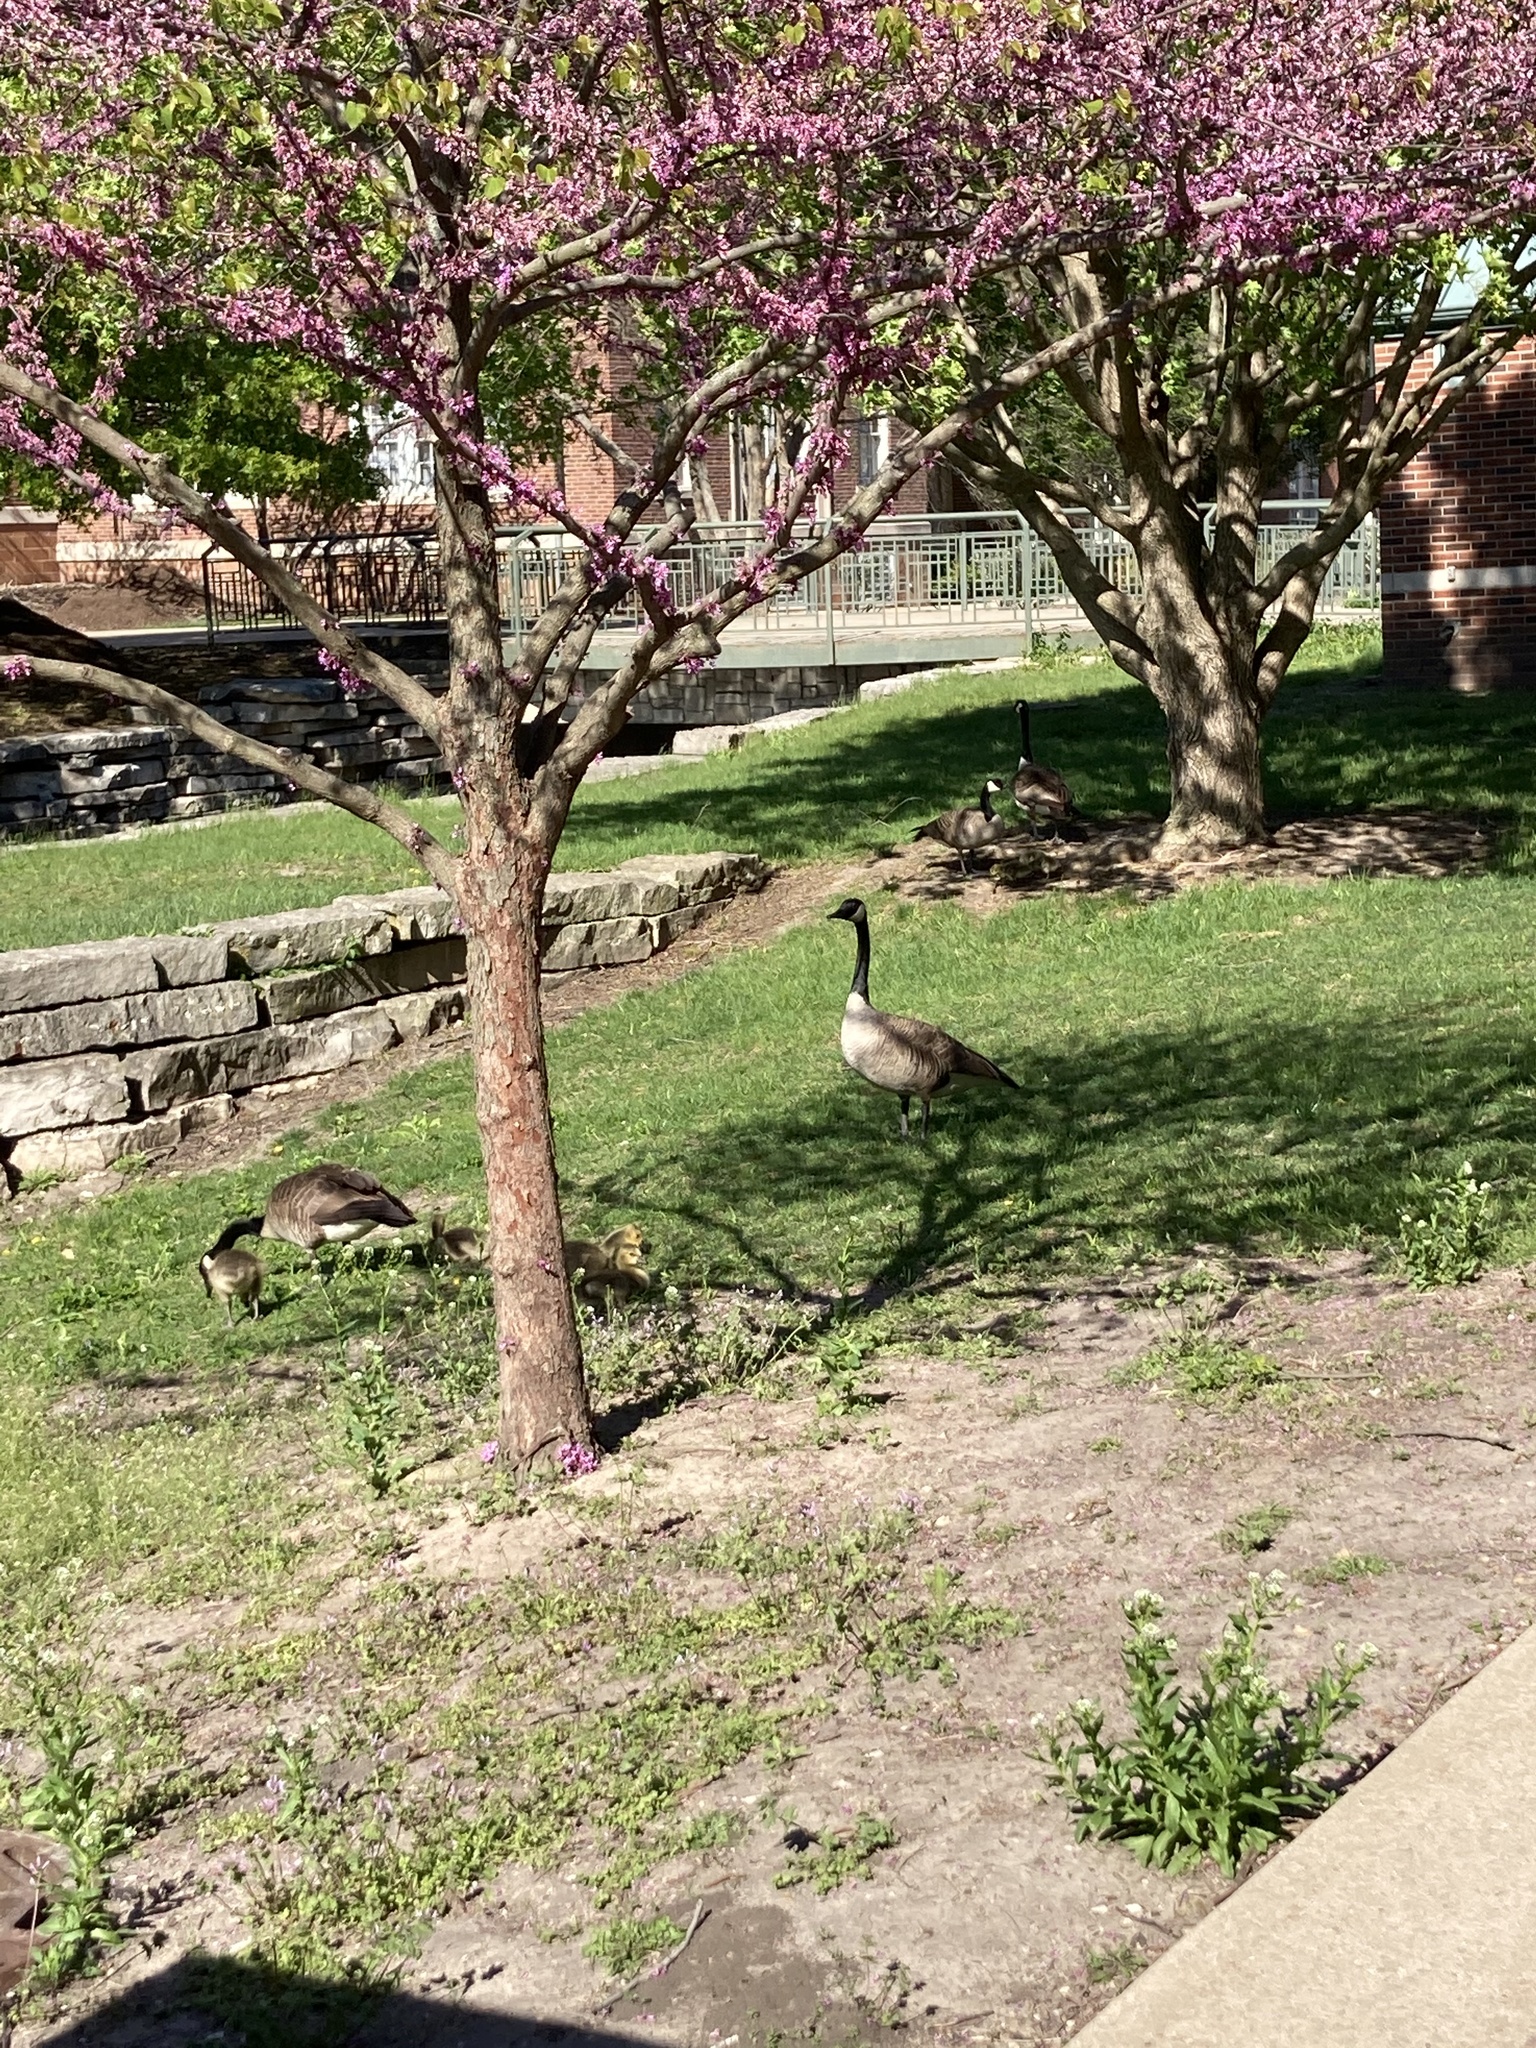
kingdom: Animalia
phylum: Chordata
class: Aves
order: Anseriformes
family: Anatidae
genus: Branta
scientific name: Branta canadensis
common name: Canada goose
